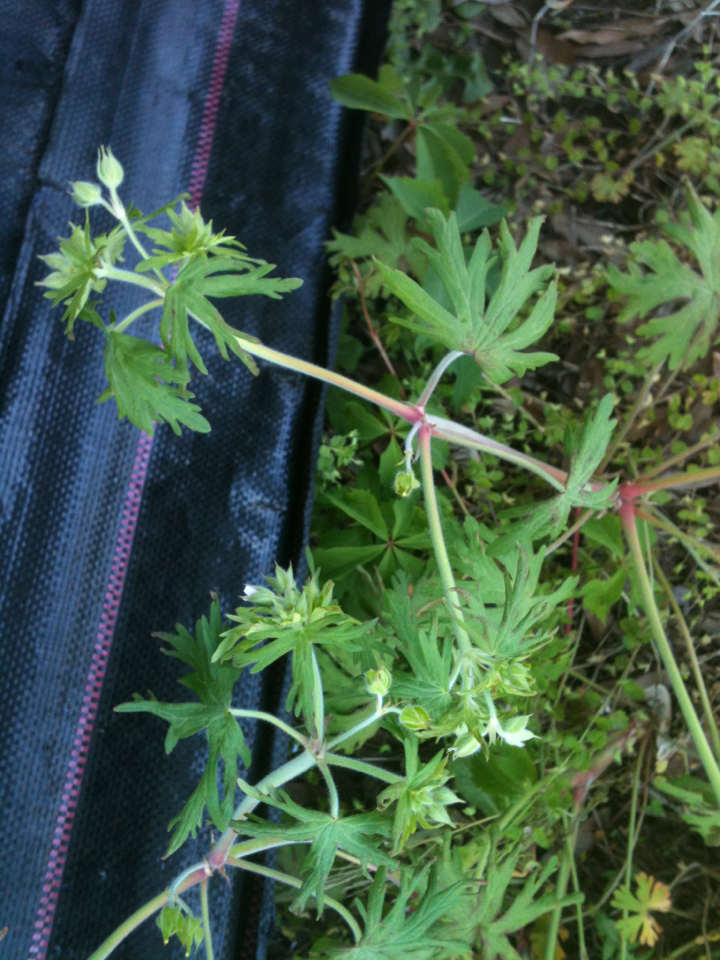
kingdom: Plantae
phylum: Tracheophyta
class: Magnoliopsida
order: Geraniales
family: Geraniaceae
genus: Geranium
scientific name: Geranium carolinianum
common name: Carolina crane's-bill
